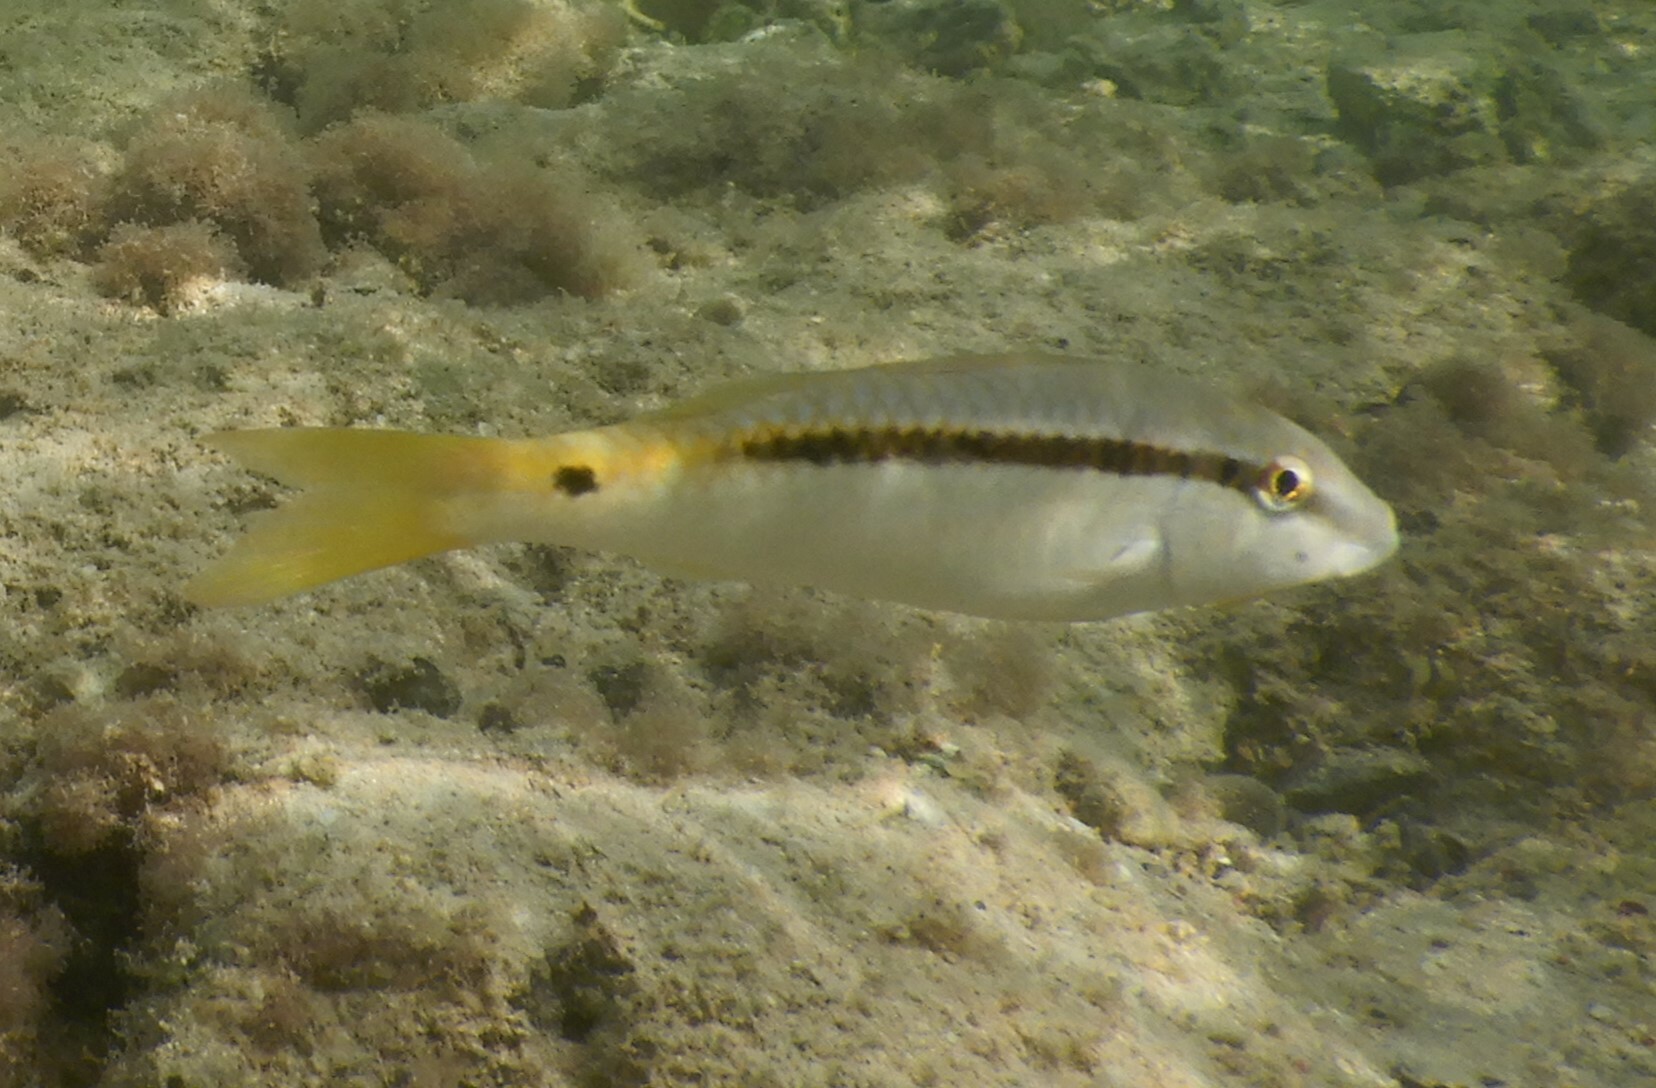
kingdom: Animalia
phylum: Chordata
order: Perciformes
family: Mullidae
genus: Parupeneus
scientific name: Parupeneus forsskali
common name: Red sea goatfish
